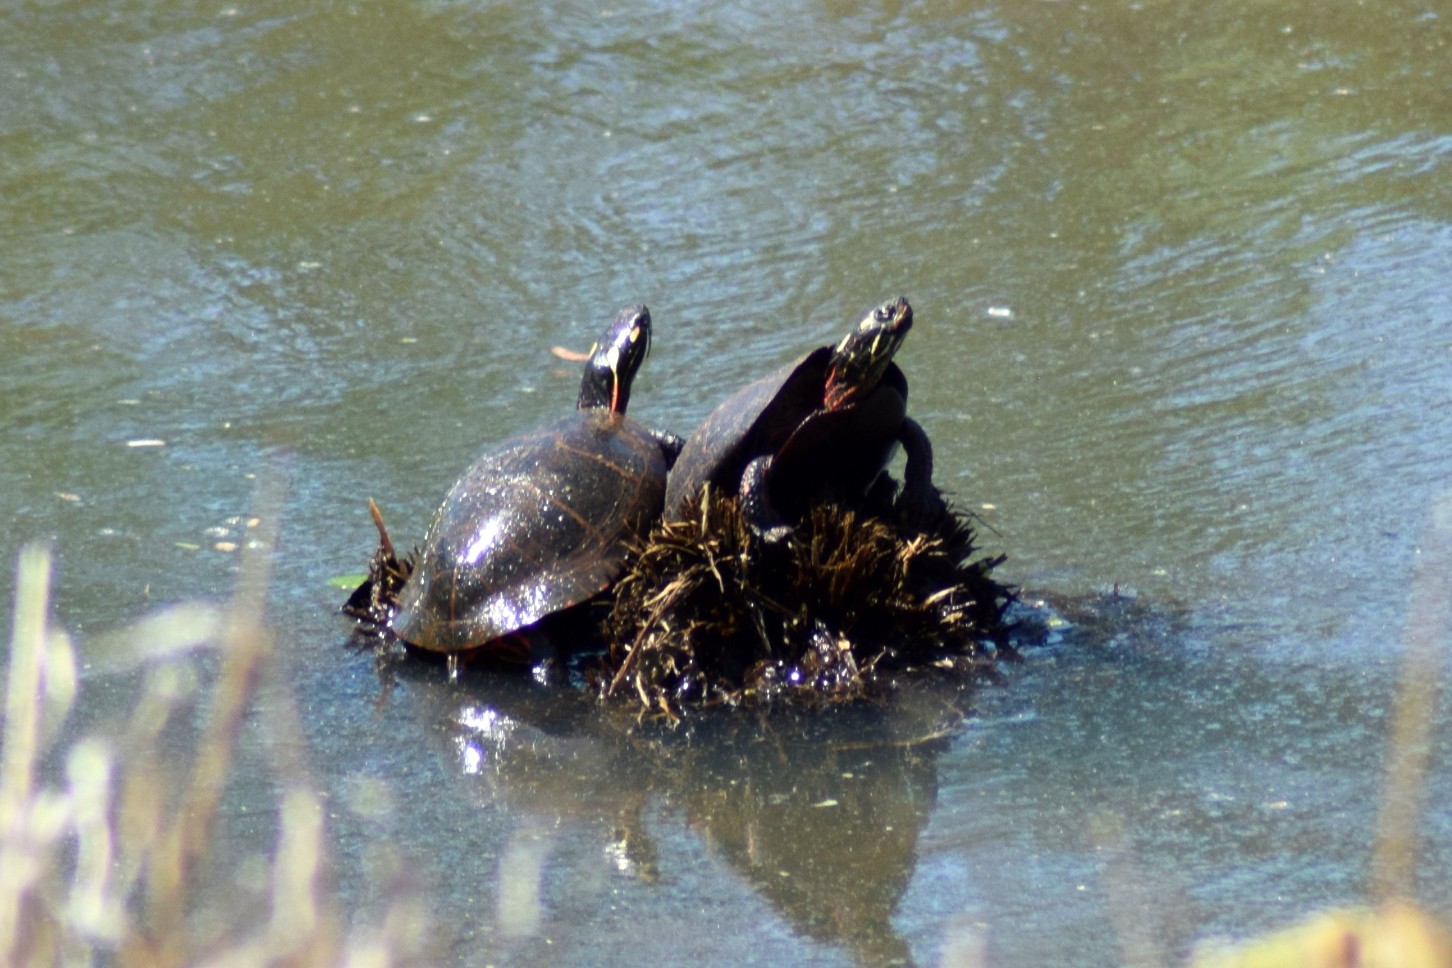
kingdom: Animalia
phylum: Chordata
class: Testudines
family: Emydidae
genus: Chrysemys
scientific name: Chrysemys picta
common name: Painted turtle
